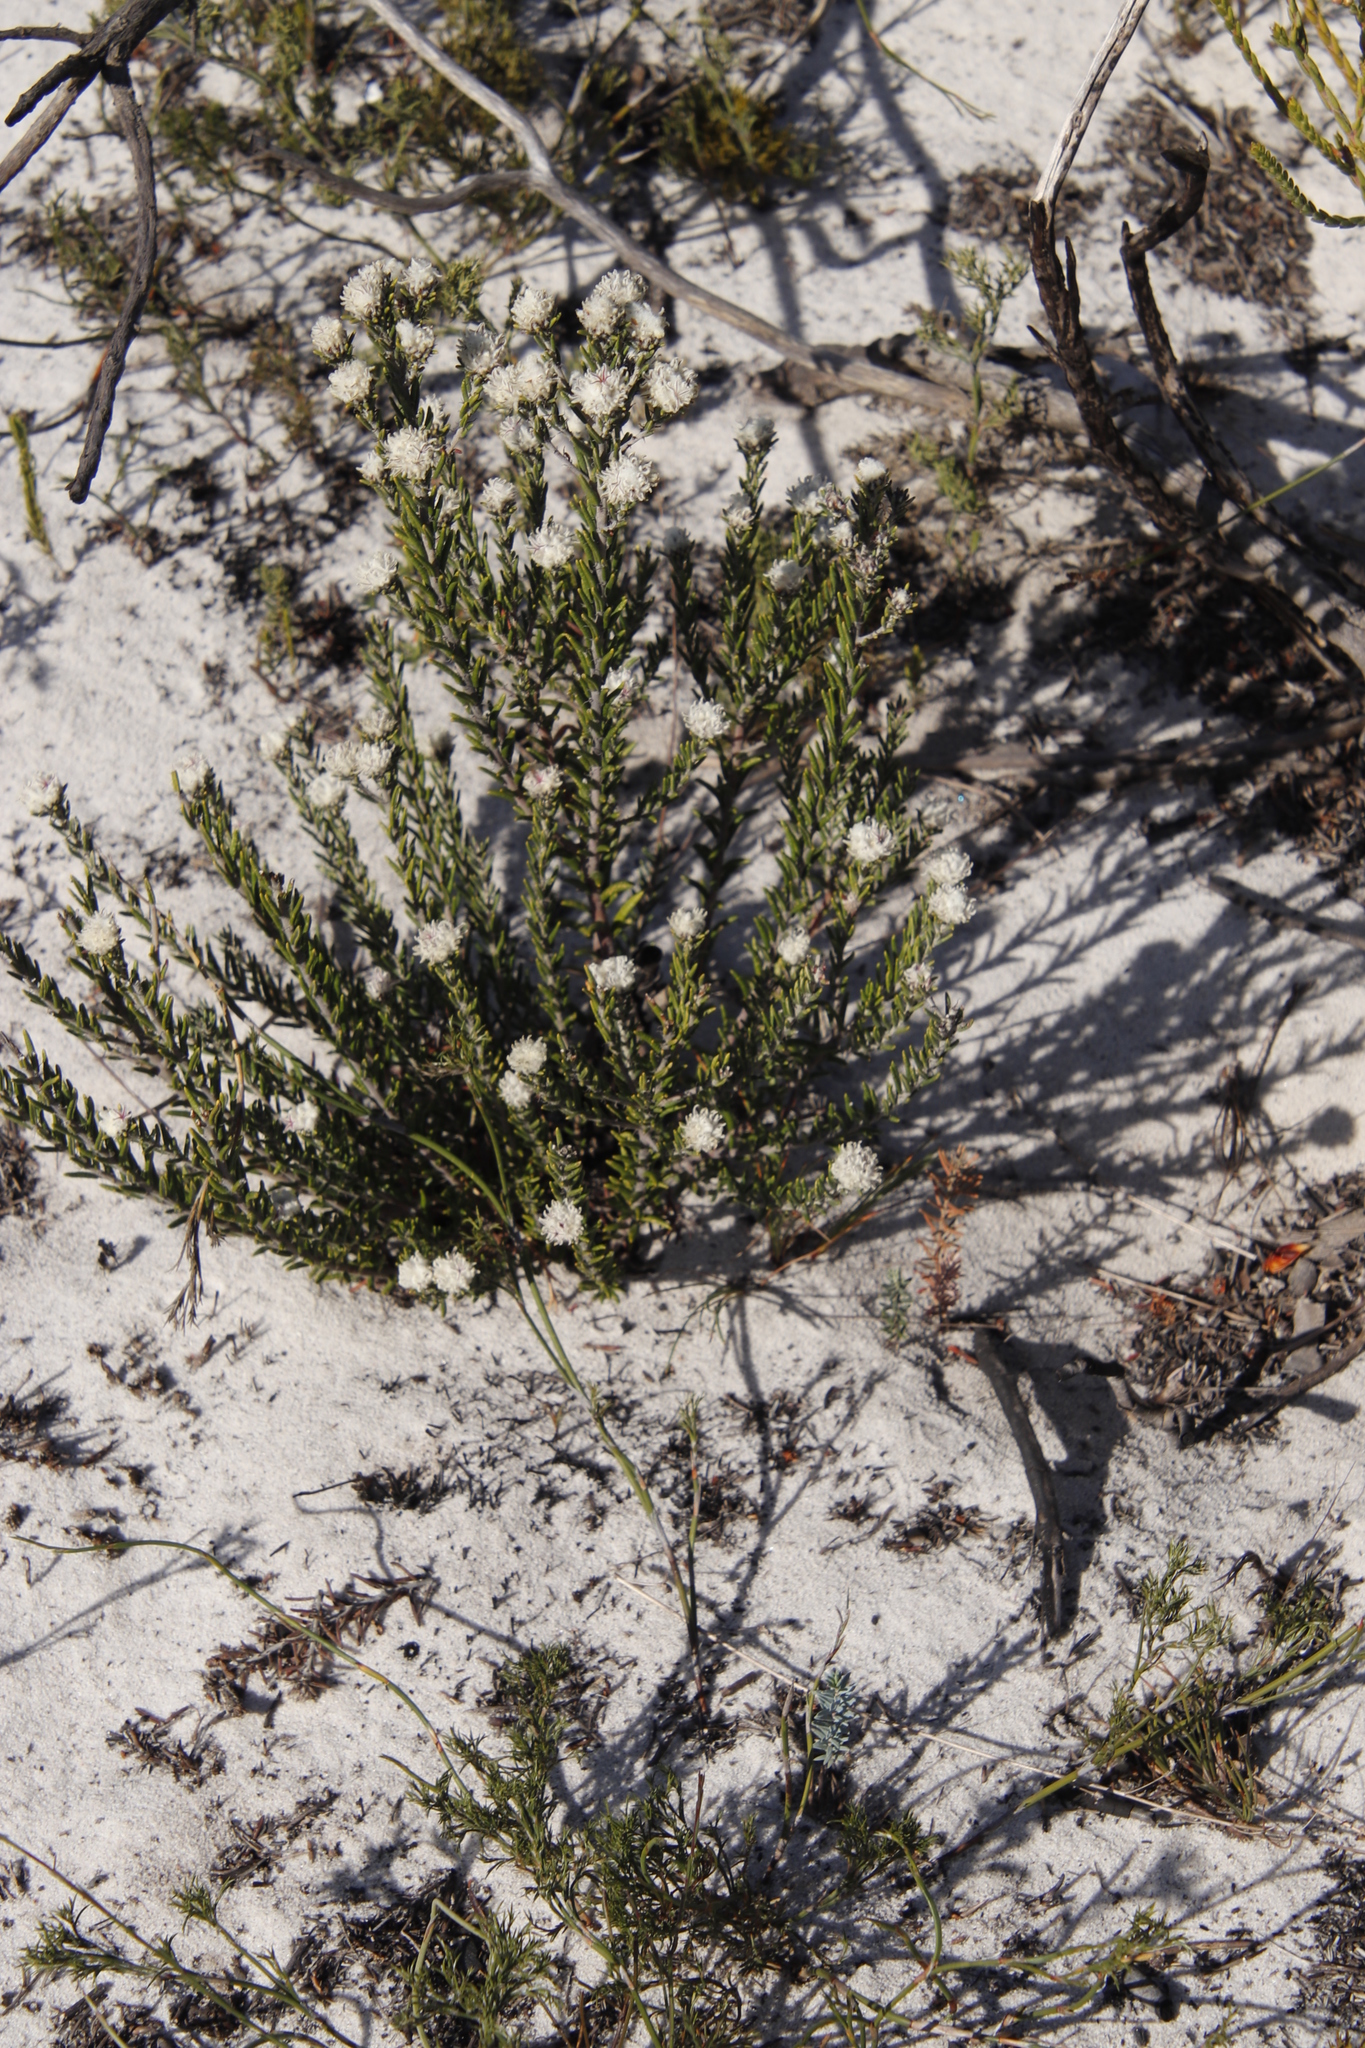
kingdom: Plantae
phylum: Tracheophyta
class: Magnoliopsida
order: Rosales
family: Rhamnaceae
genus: Trichocephalus
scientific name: Trichocephalus stipularis
